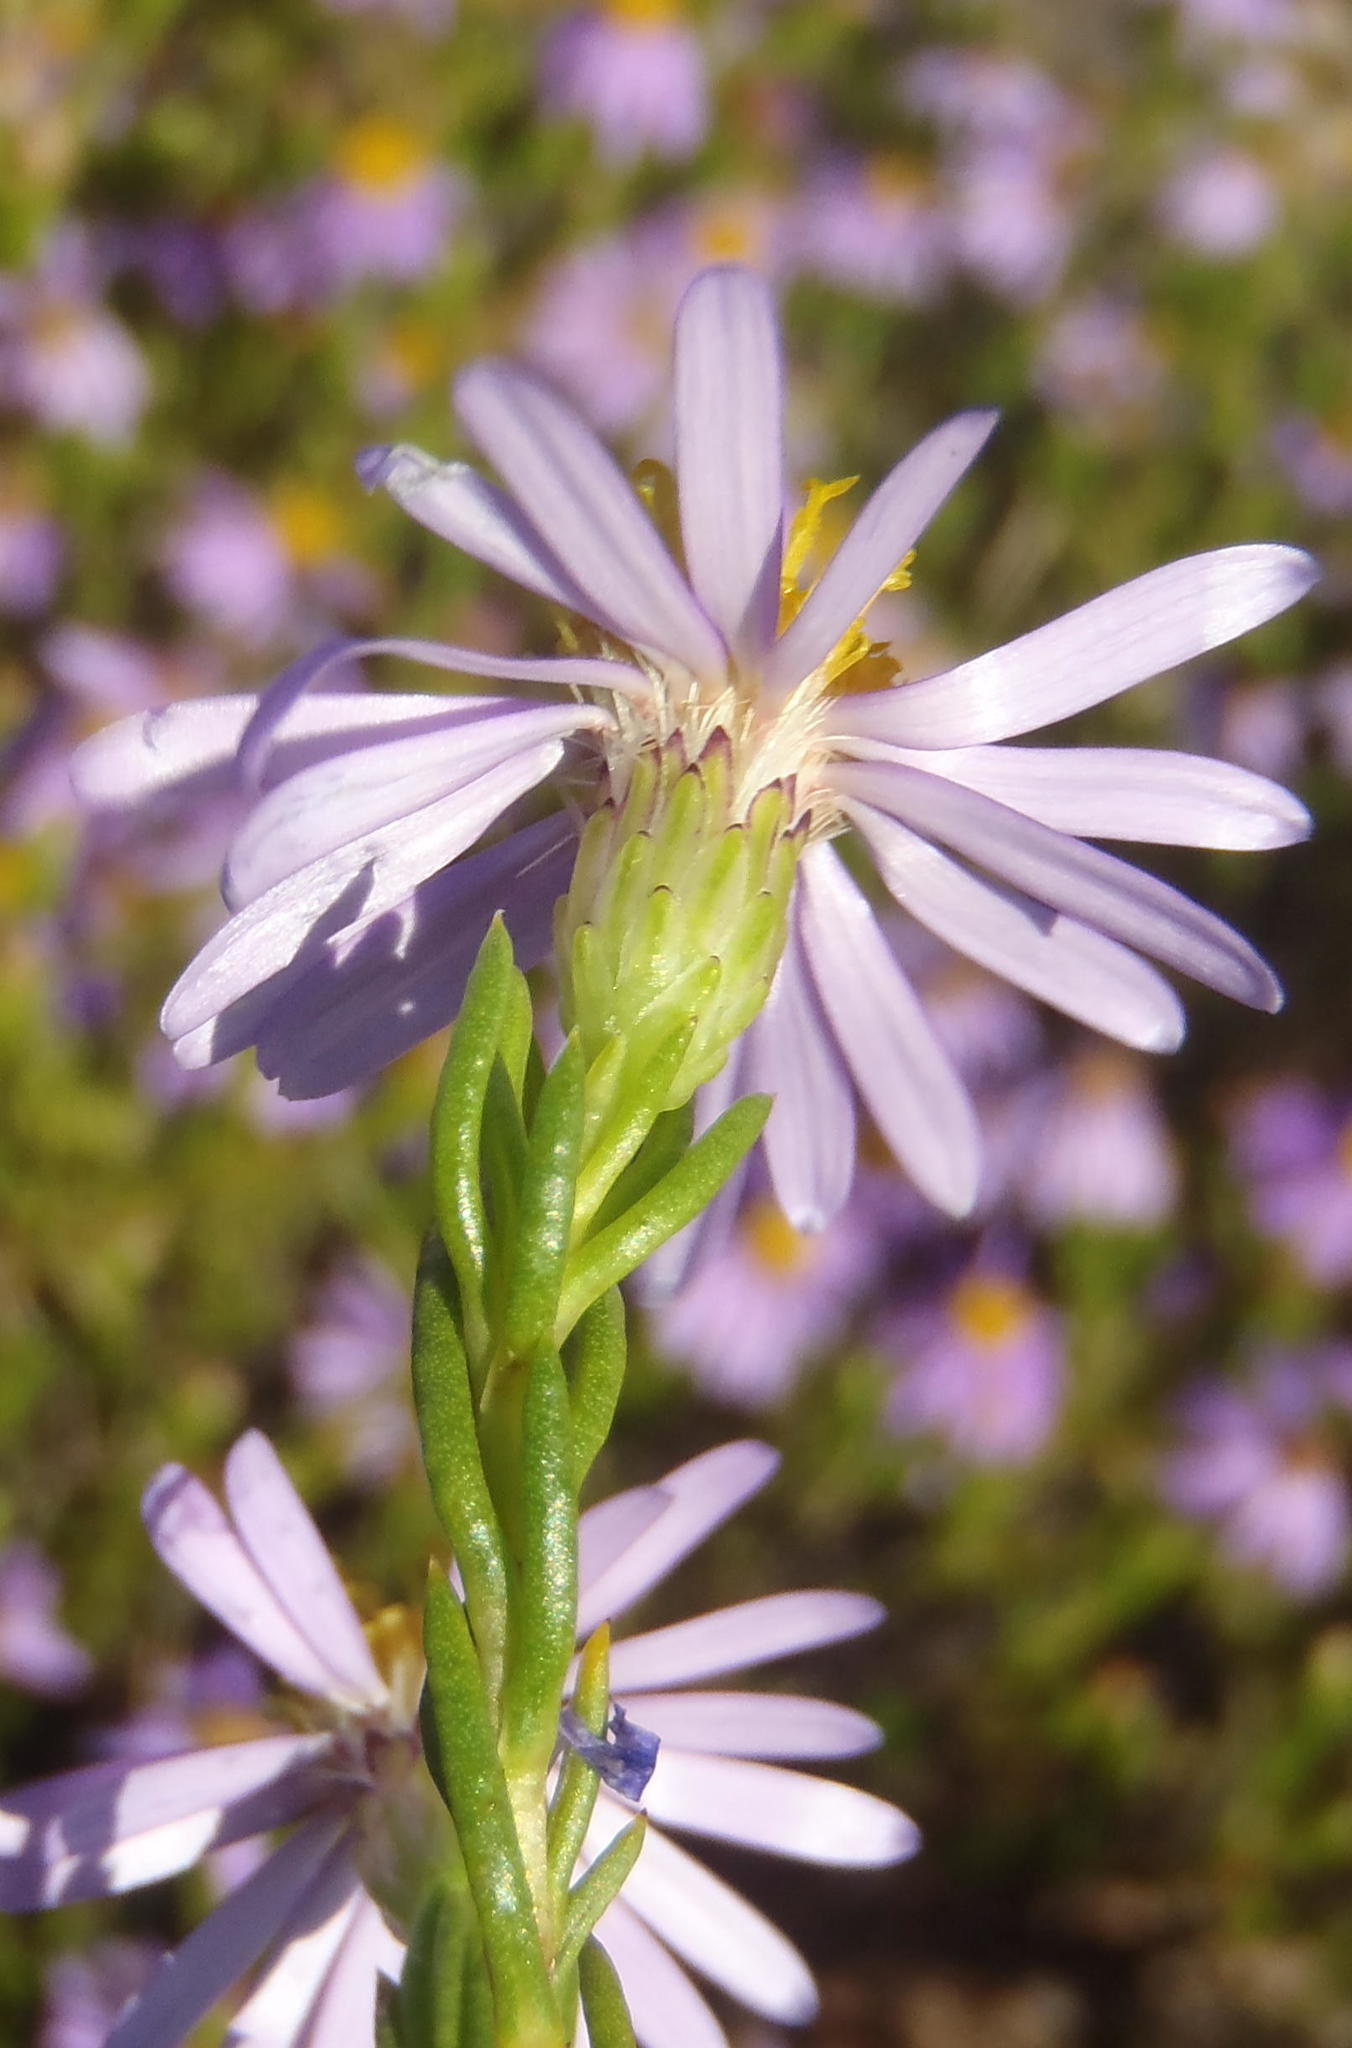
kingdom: Plantae
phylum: Tracheophyta
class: Magnoliopsida
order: Asterales
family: Asteraceae
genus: Felicia
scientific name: Felicia filifolia
